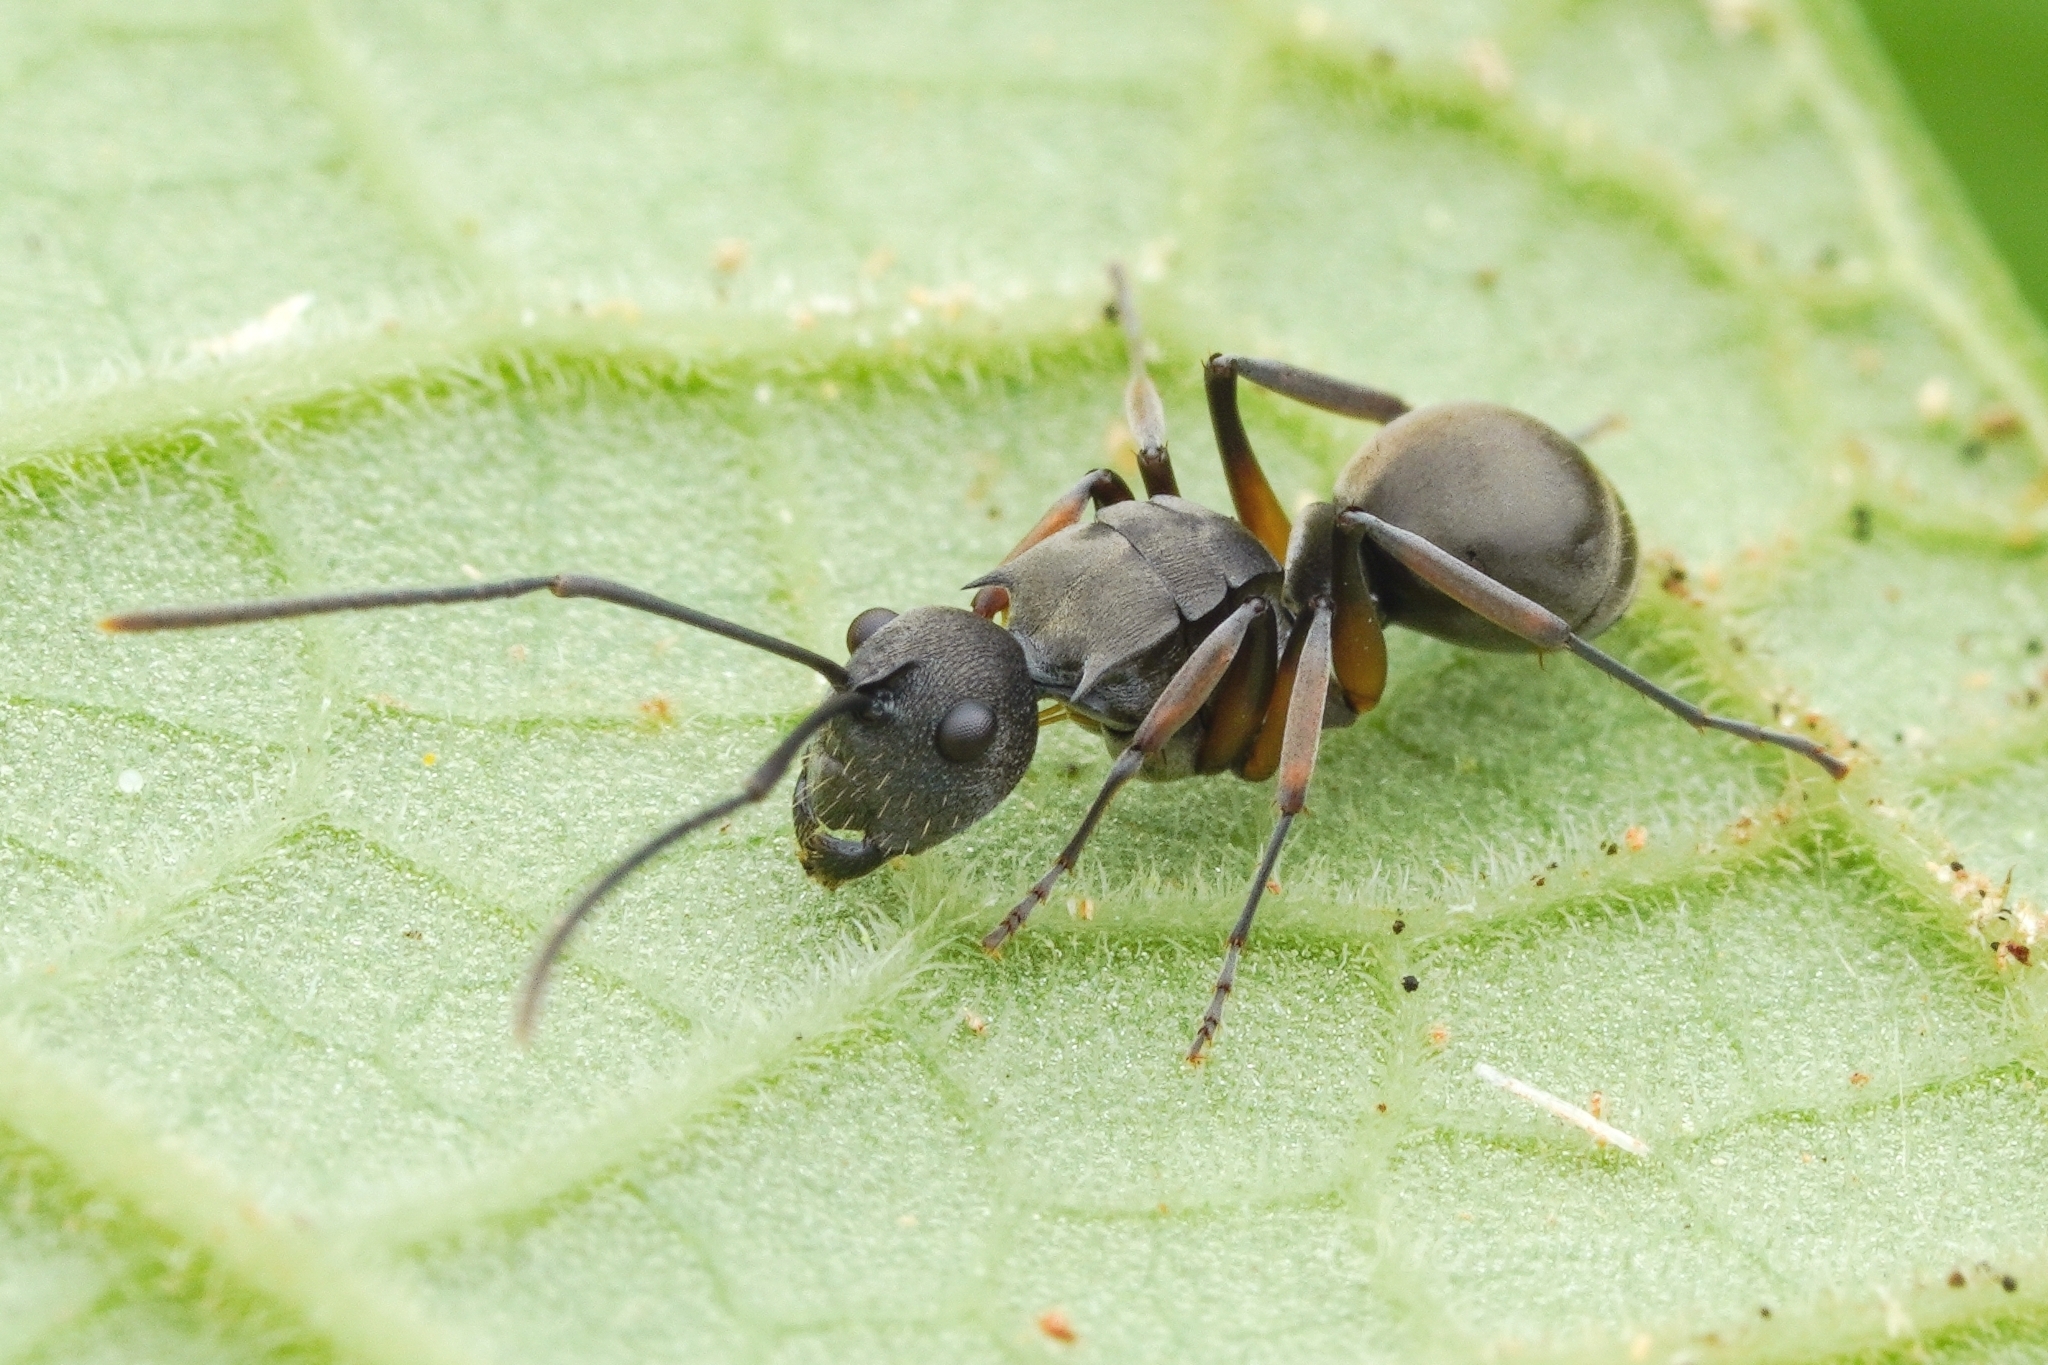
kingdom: Animalia
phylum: Arthropoda
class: Insecta
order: Hymenoptera
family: Formicidae
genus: Polyrhachis
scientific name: Polyrhachis vindex
